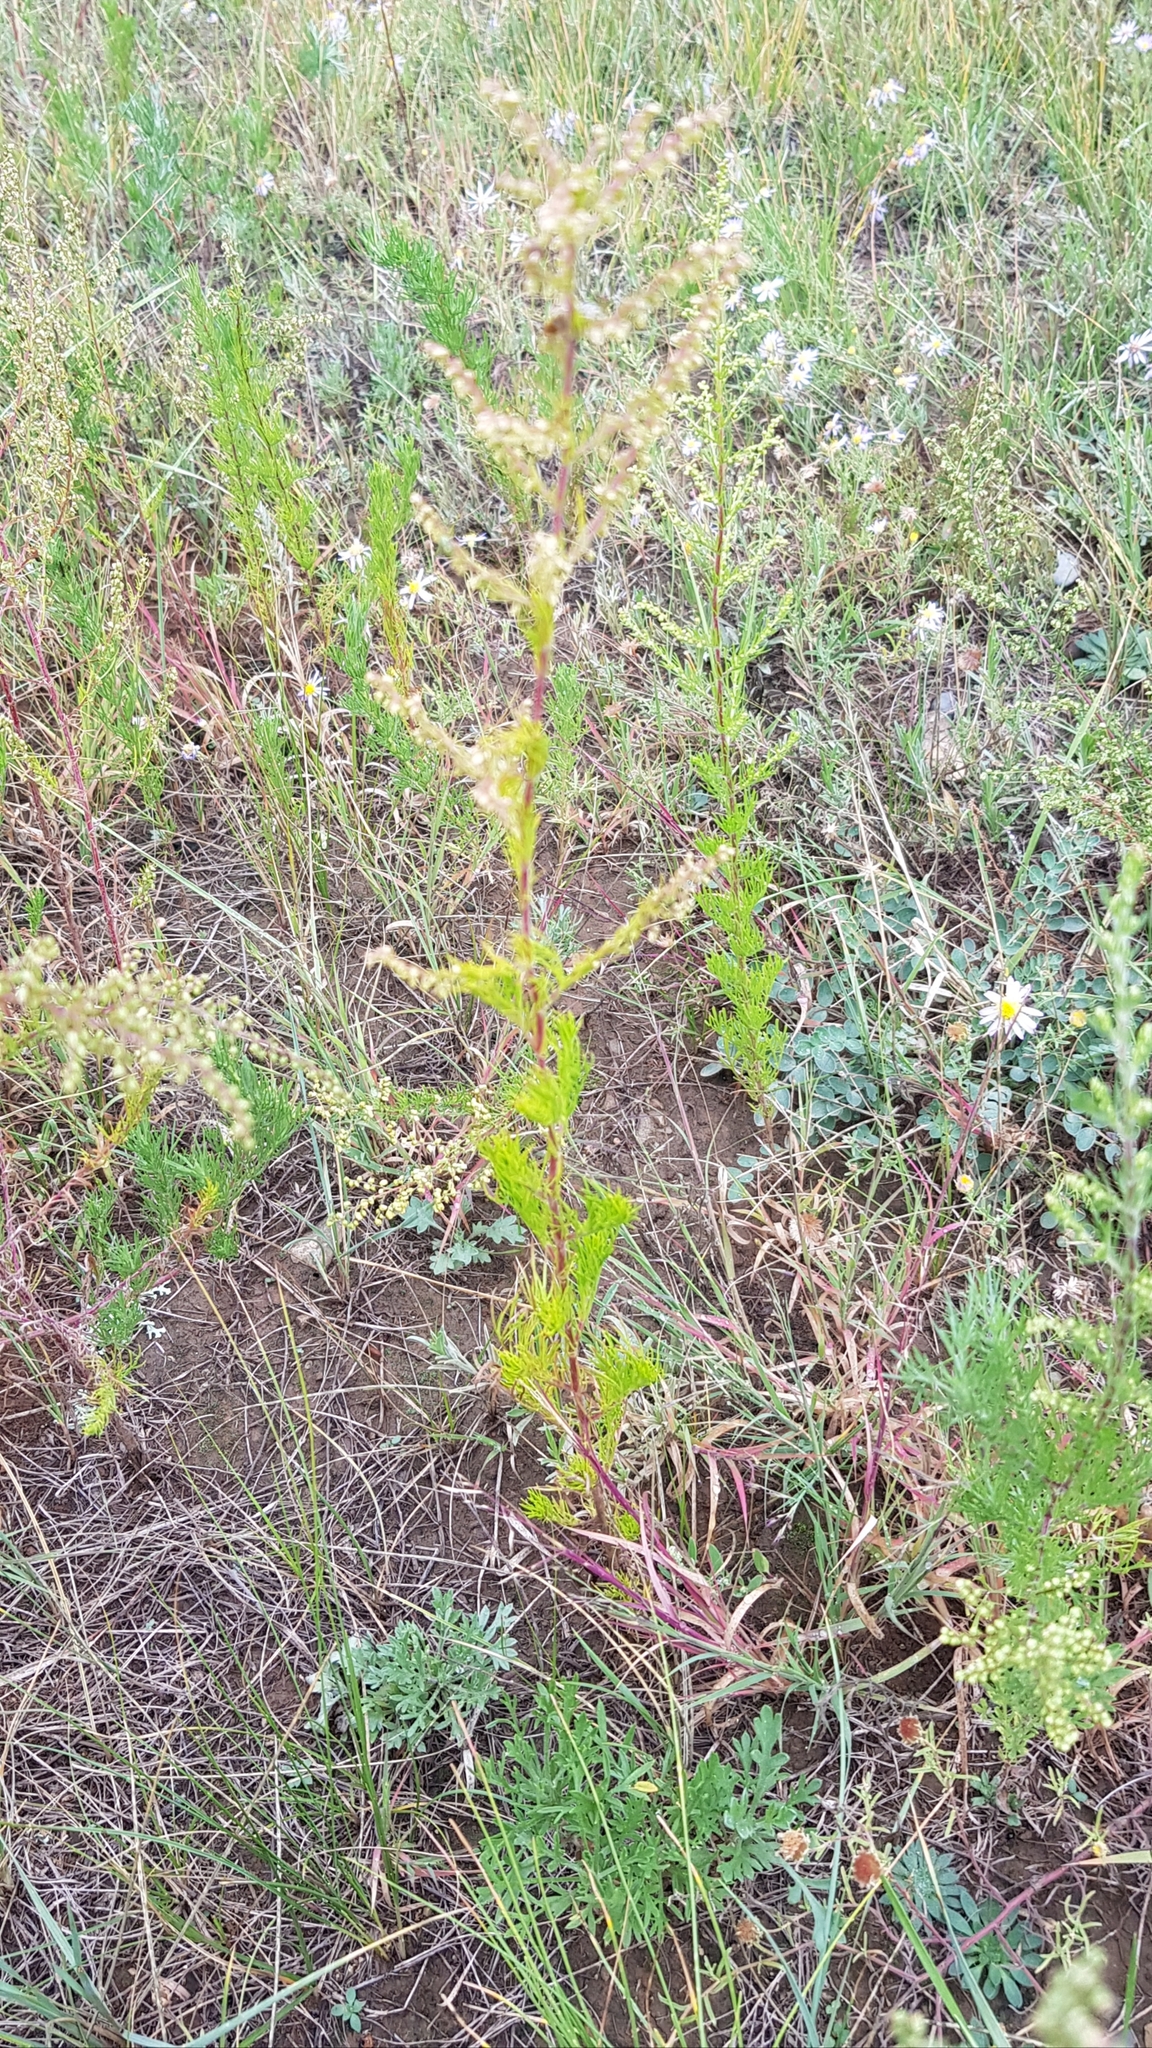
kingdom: Plantae
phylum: Tracheophyta
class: Magnoliopsida
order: Asterales
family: Asteraceae
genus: Artemisia
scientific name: Artemisia pubescens
